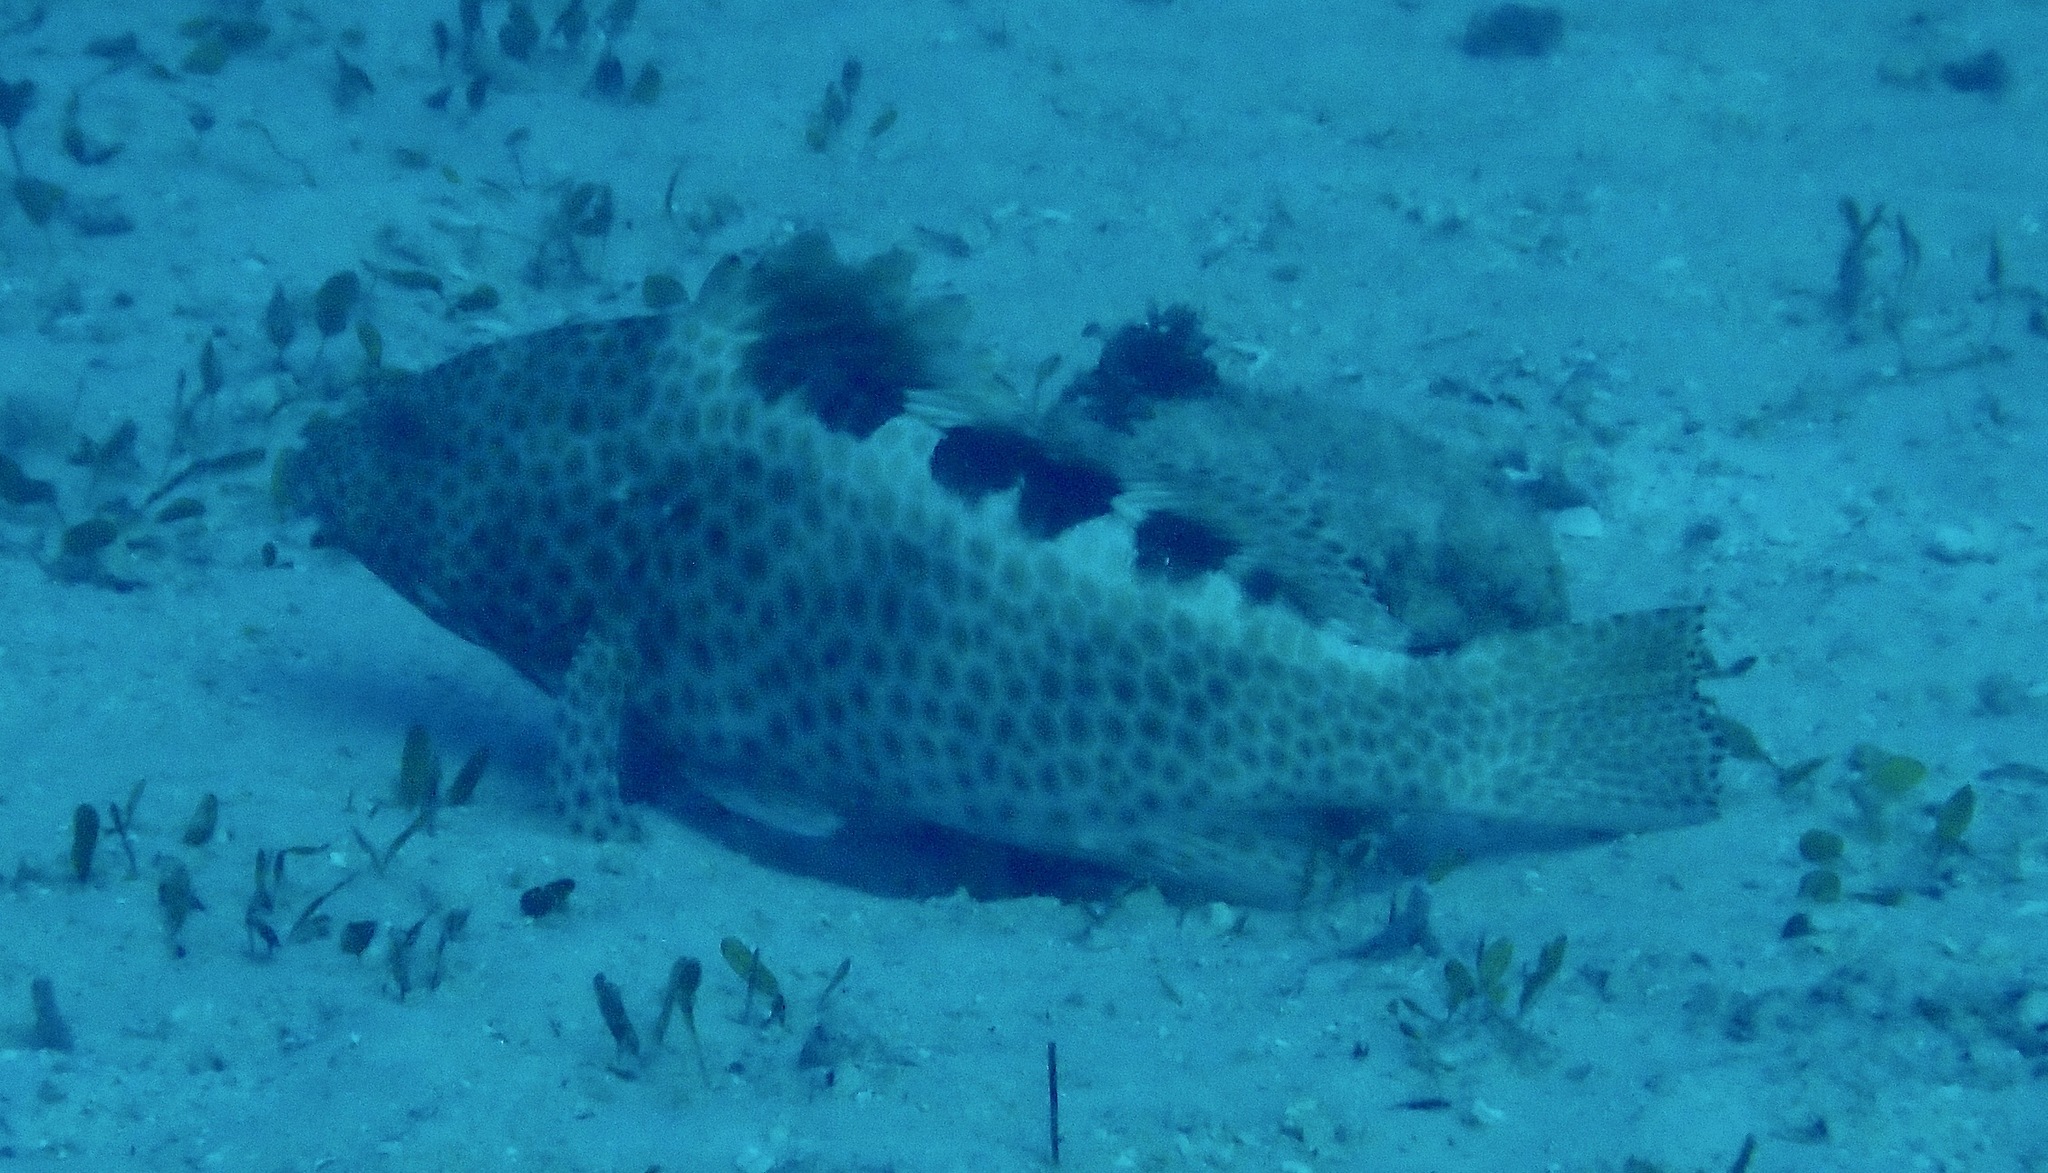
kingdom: Animalia
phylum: Chordata
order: Perciformes
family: Serranidae
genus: Epinephelus
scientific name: Epinephelus bilobatus
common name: Twinspot grouper
